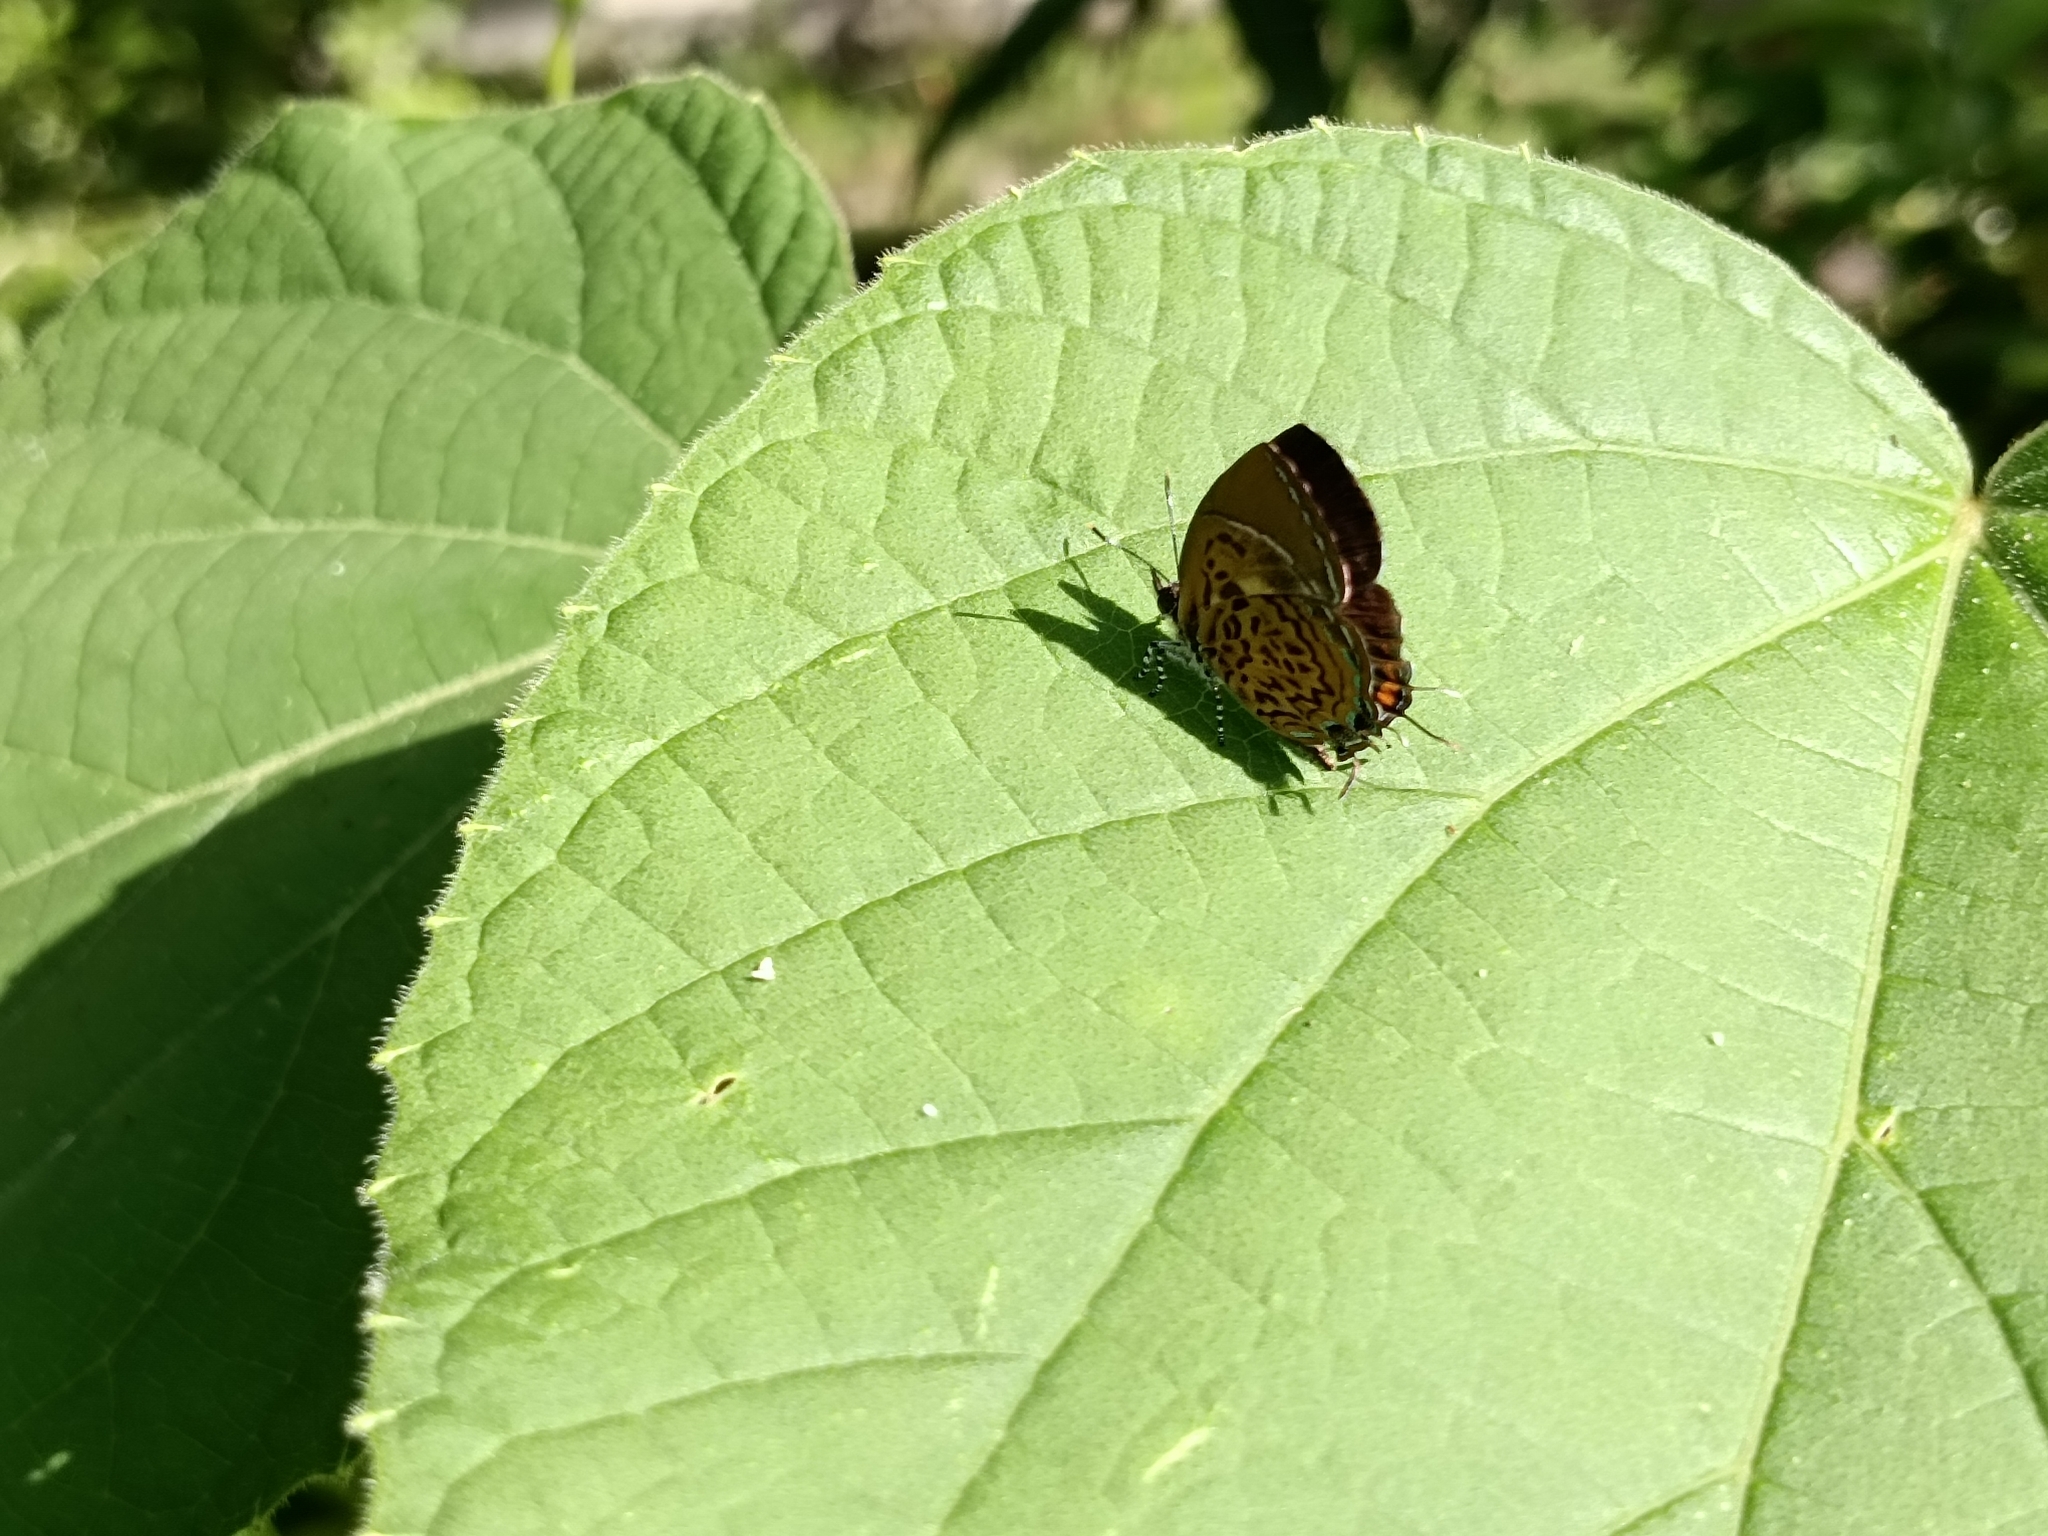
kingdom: Animalia
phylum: Arthropoda
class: Insecta
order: Lepidoptera
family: Lycaenidae
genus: Rathinda
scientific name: Rathinda amor
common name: Monkey puzzle
